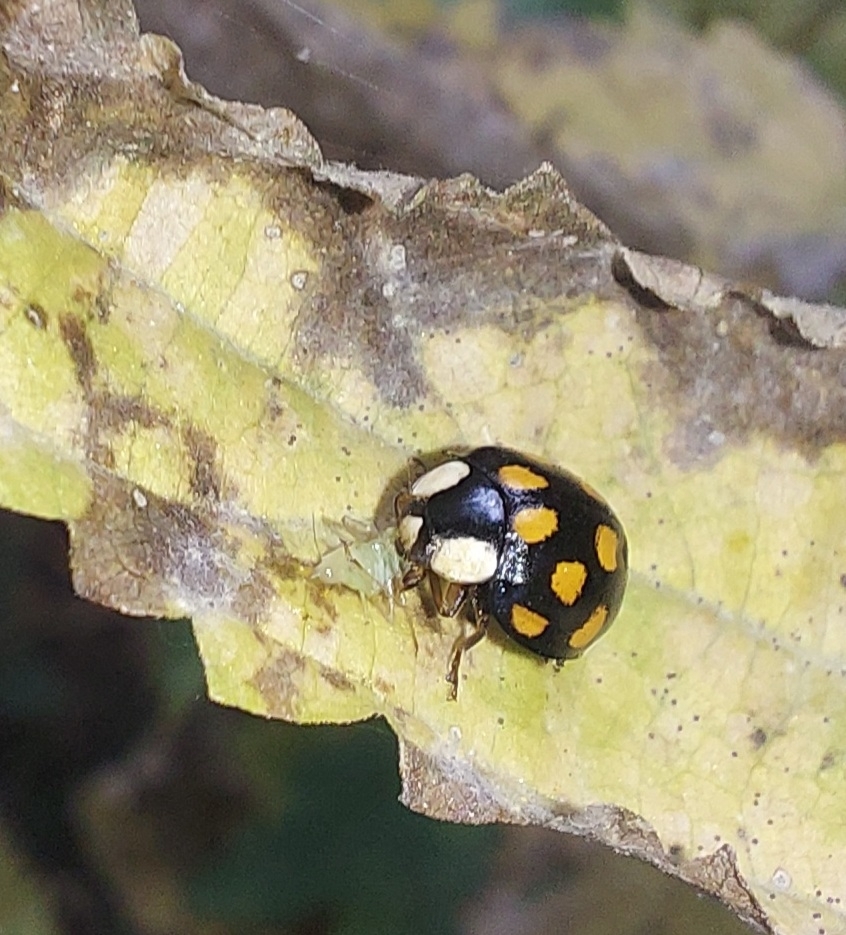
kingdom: Animalia
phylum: Arthropoda
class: Insecta
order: Coleoptera
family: Coccinellidae
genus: Harmonia
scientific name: Harmonia axyridis
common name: Harlequin ladybird
